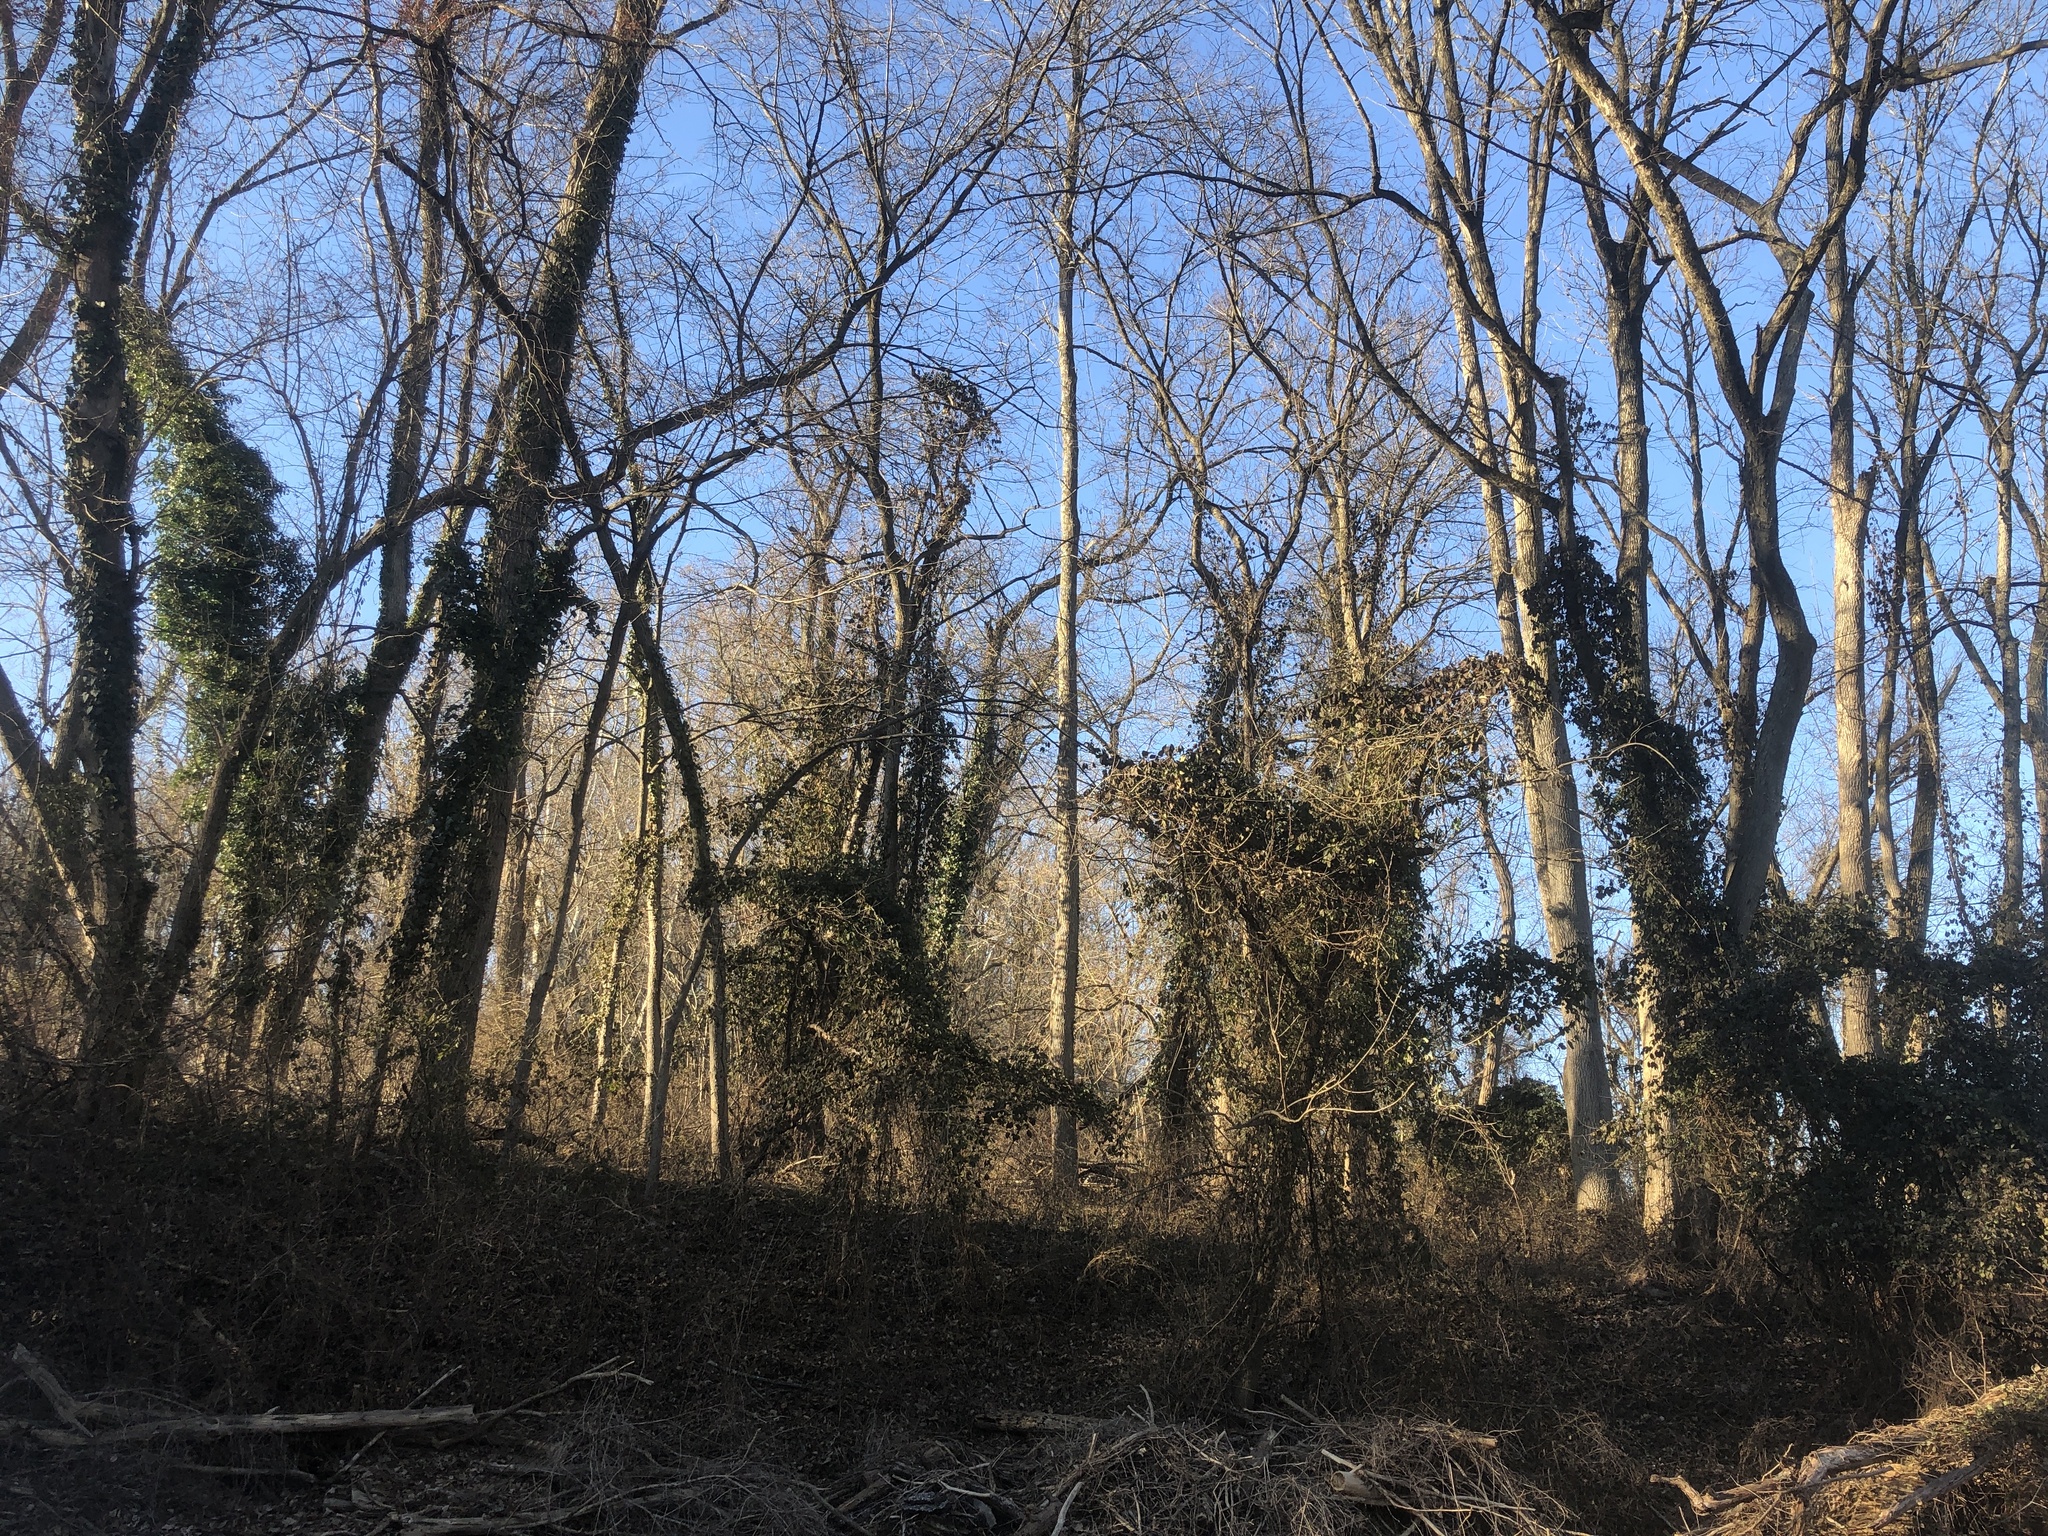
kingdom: Plantae
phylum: Tracheophyta
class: Magnoliopsida
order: Ranunculales
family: Lardizabalaceae
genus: Akebia
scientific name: Akebia quinata
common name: Five-leaf akebia
